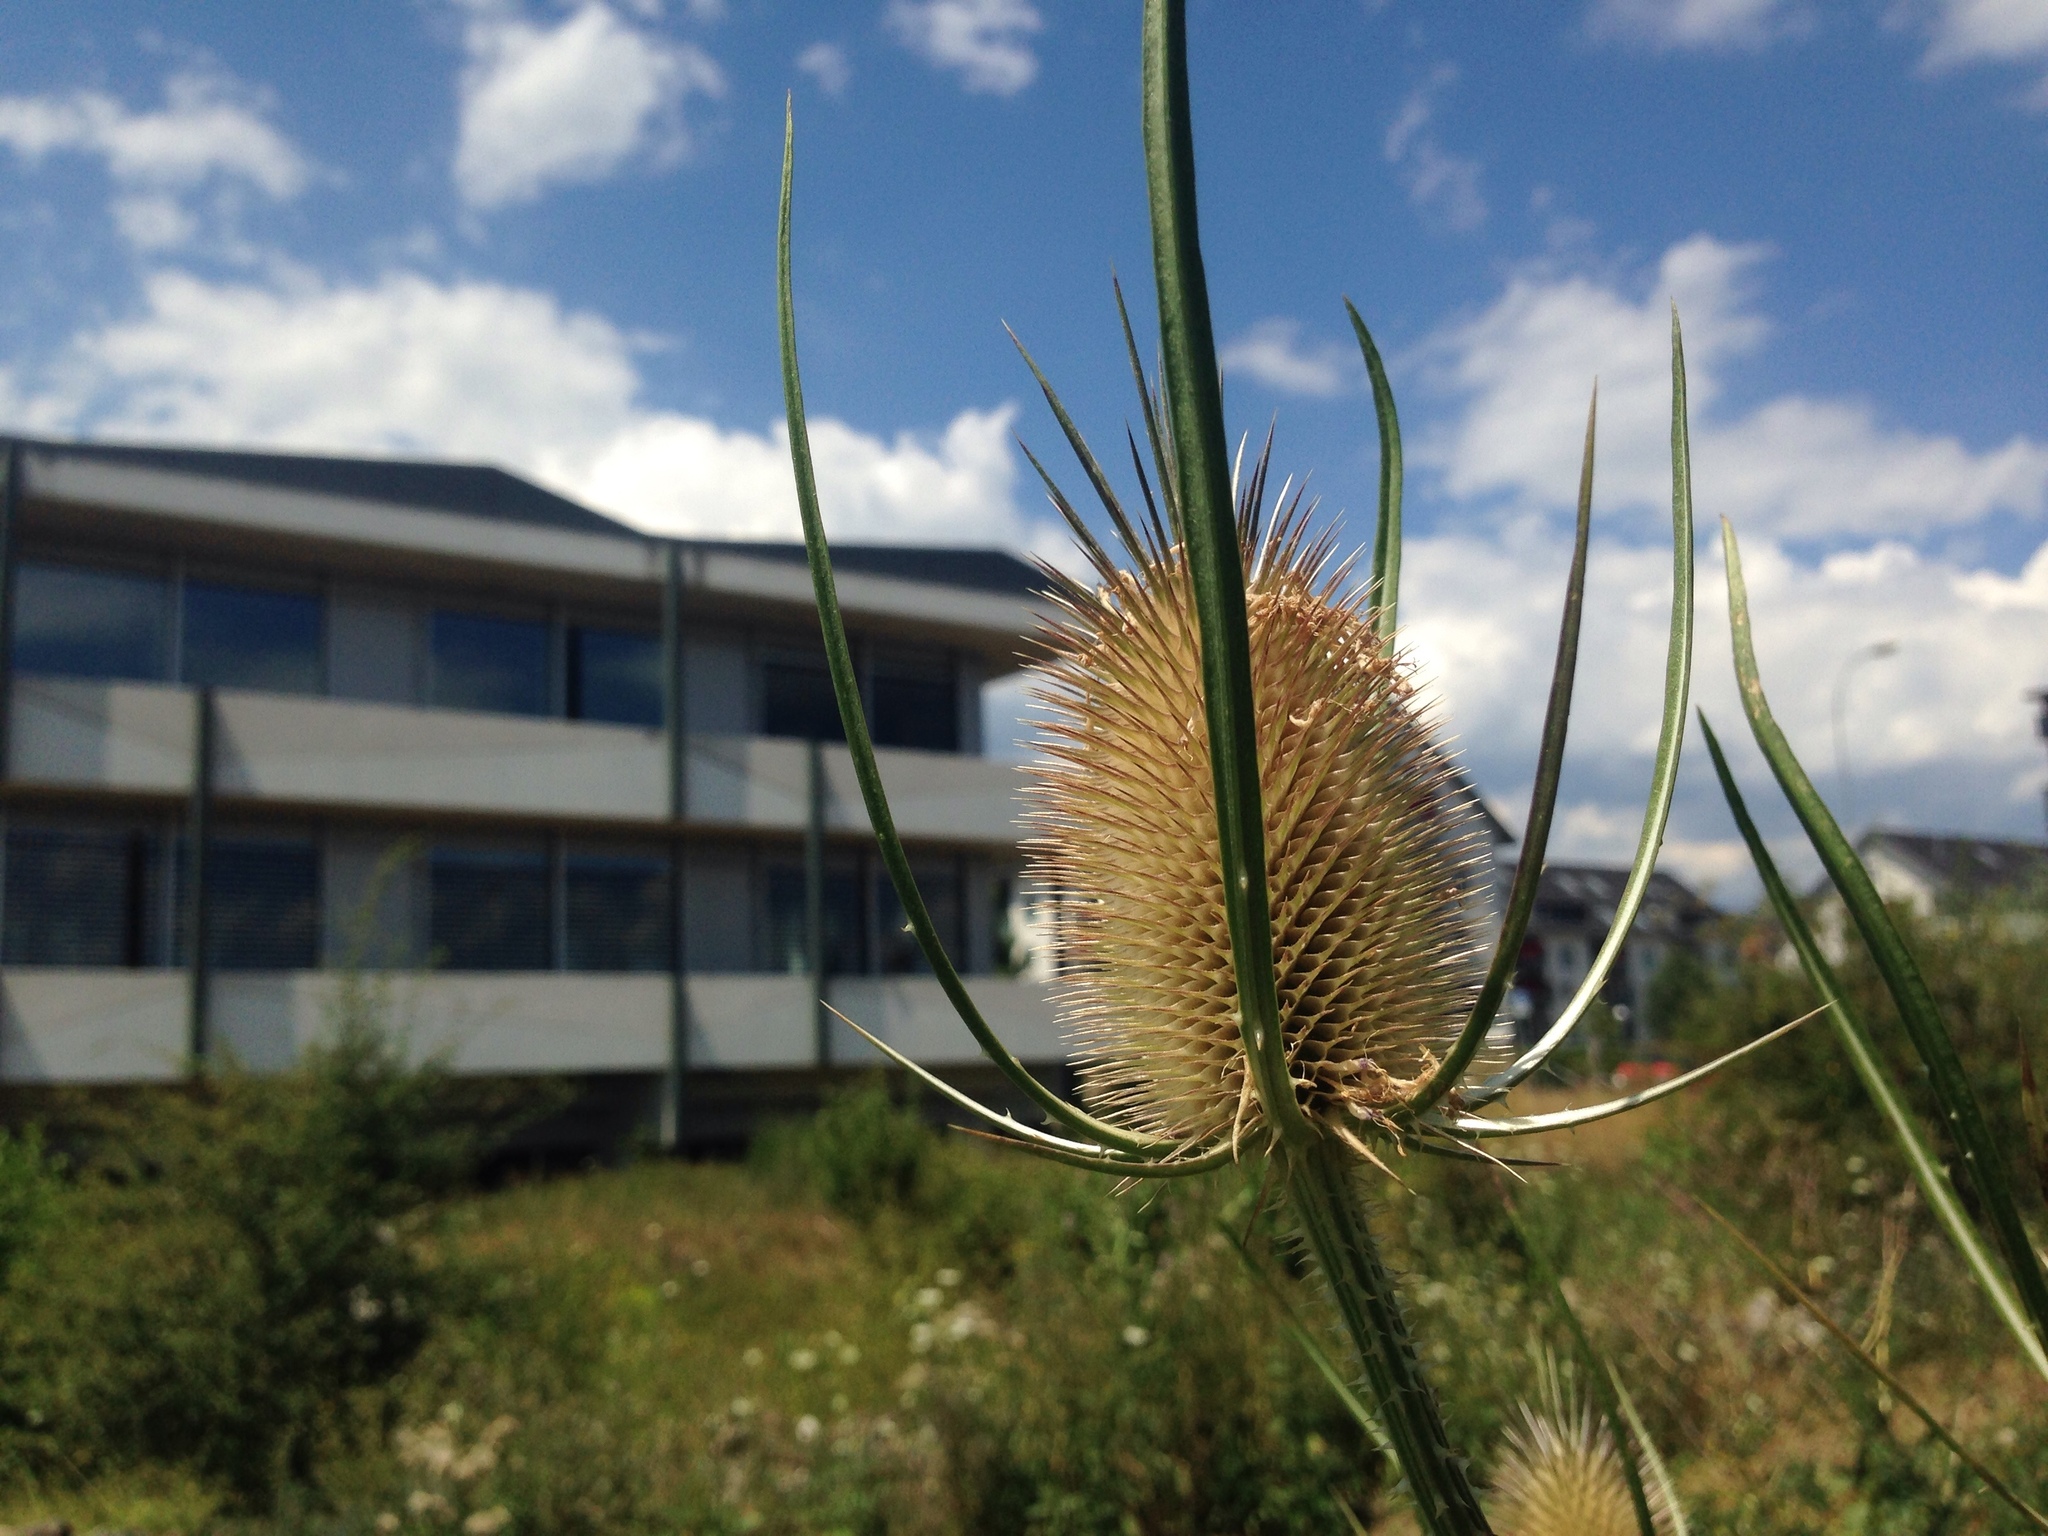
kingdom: Plantae
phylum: Tracheophyta
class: Magnoliopsida
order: Dipsacales
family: Caprifoliaceae
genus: Dipsacus
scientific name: Dipsacus fullonum
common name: Teasel
